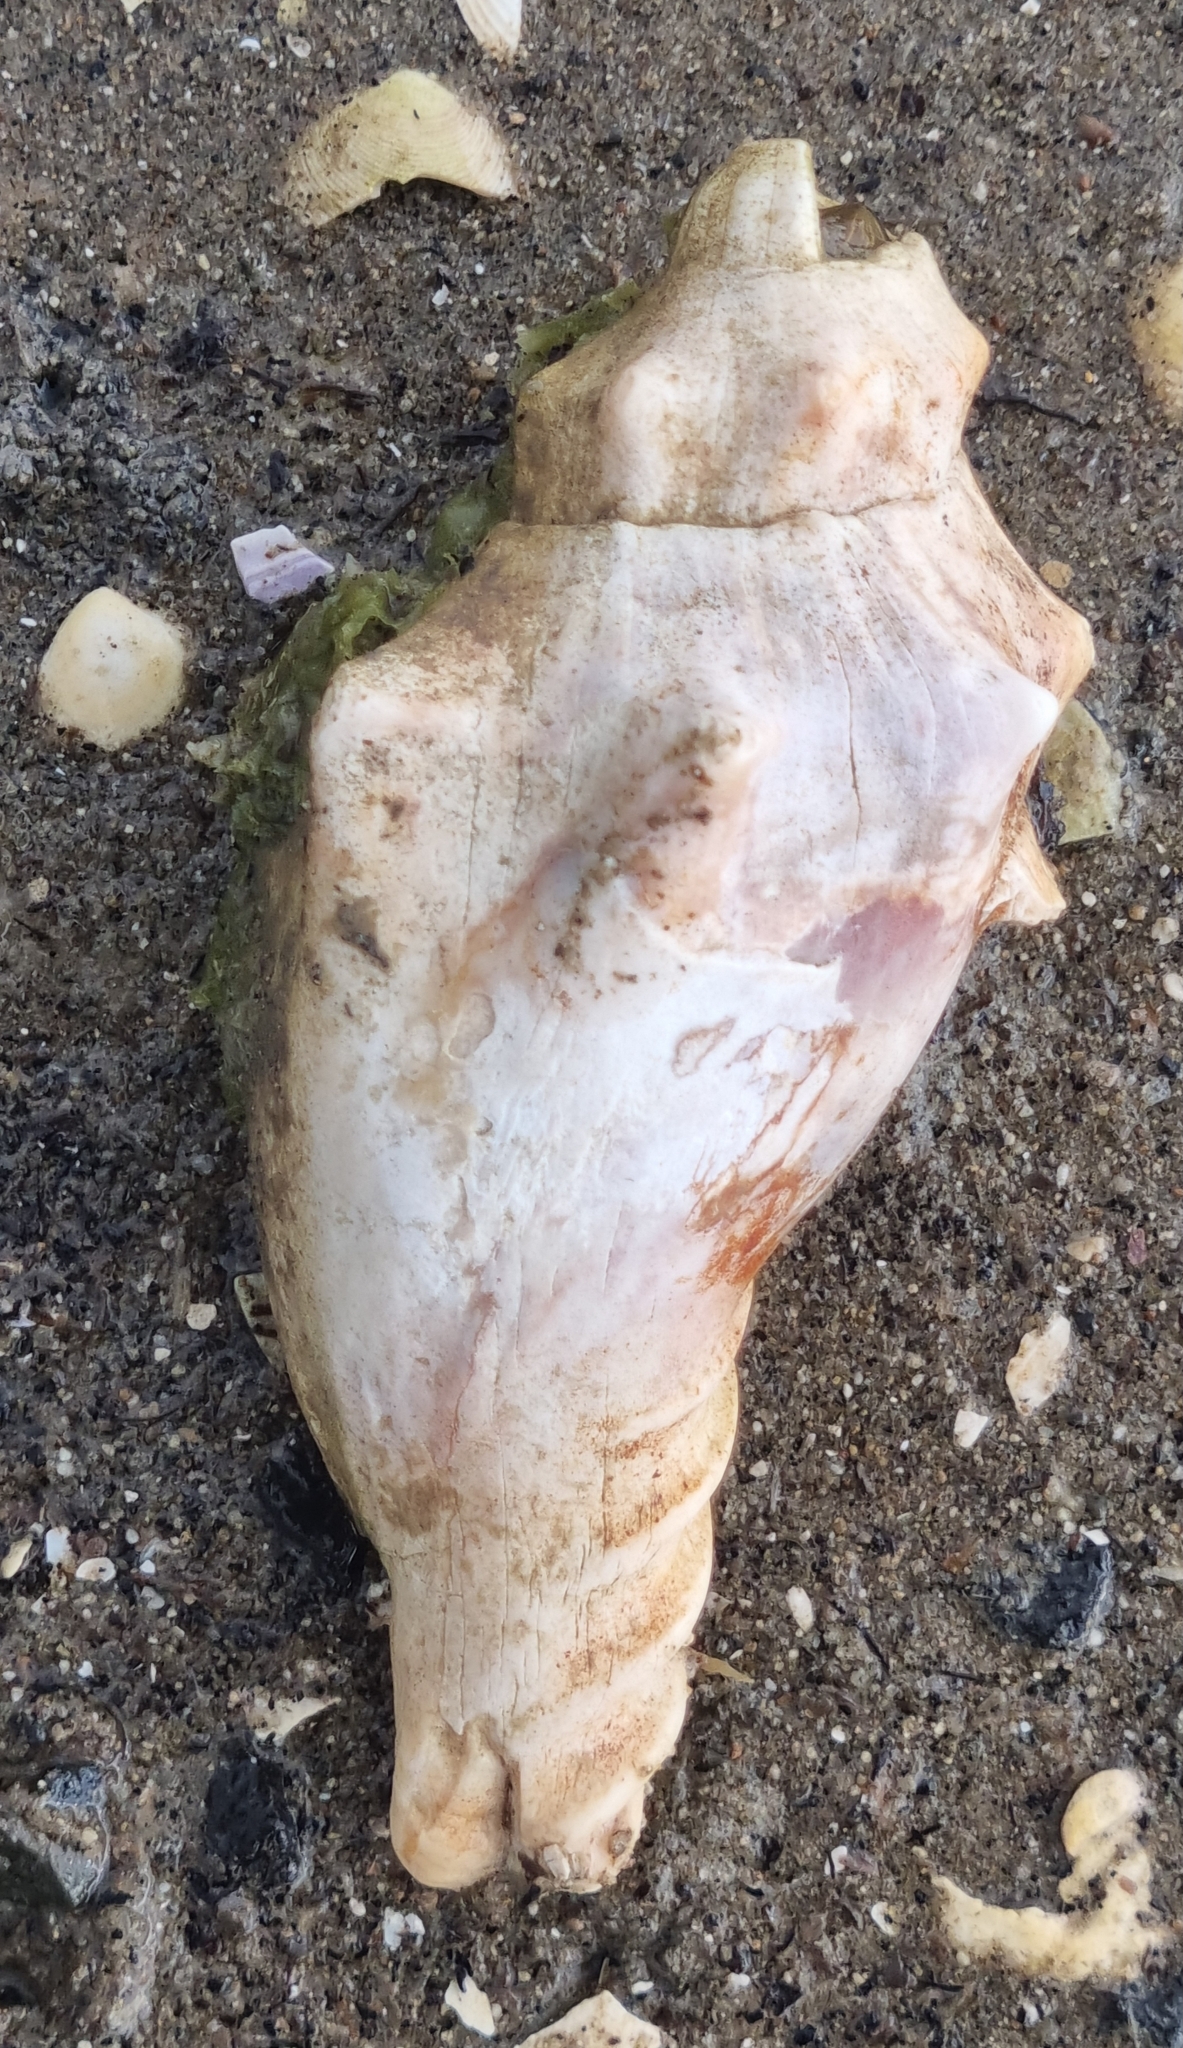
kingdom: Animalia
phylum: Mollusca
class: Gastropoda
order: Neogastropoda
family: Volutidae
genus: Alcithoe
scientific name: Alcithoe arabica
